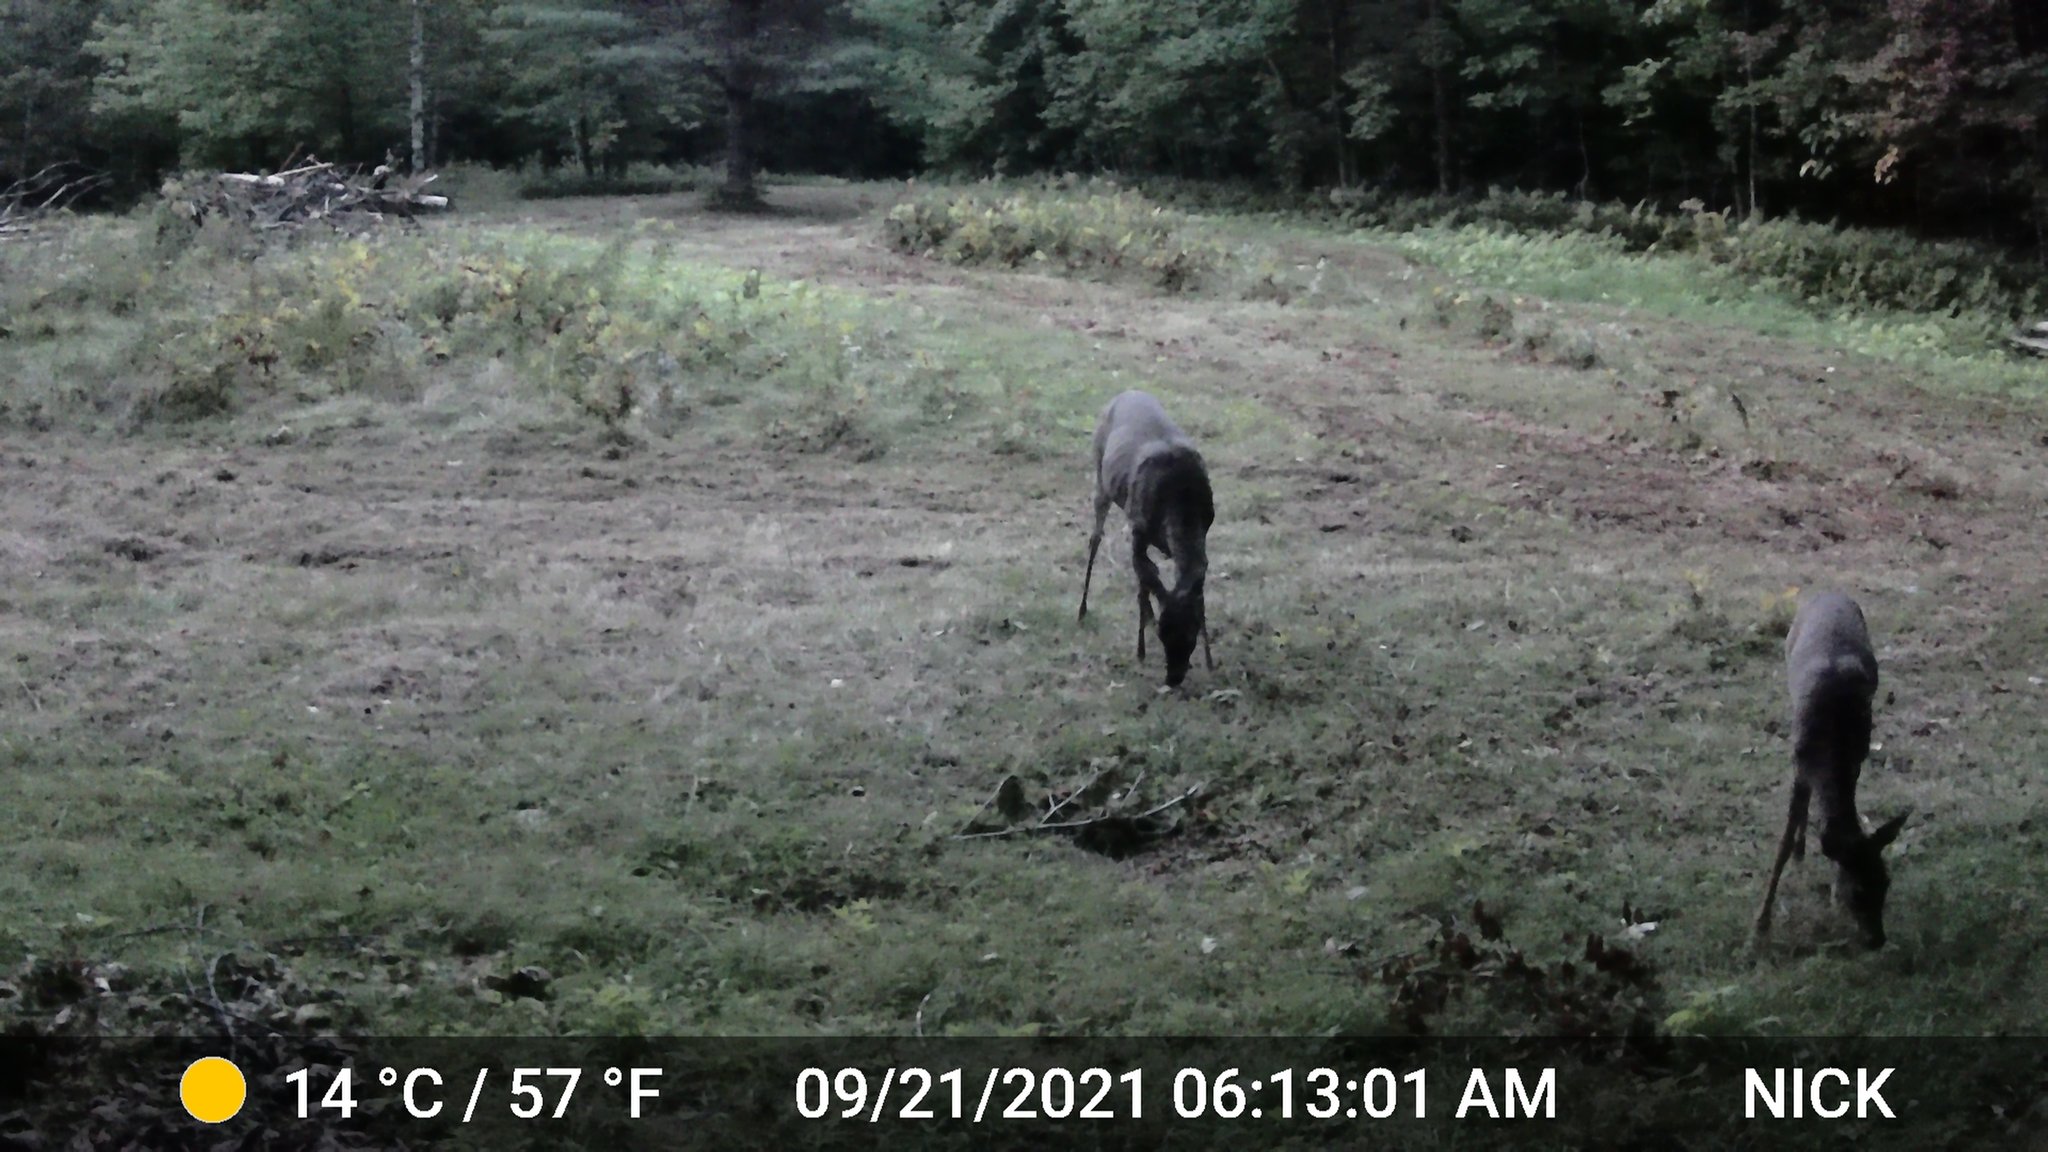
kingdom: Animalia
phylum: Chordata
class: Mammalia
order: Artiodactyla
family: Cervidae
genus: Odocoileus
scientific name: Odocoileus virginianus
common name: White-tailed deer
